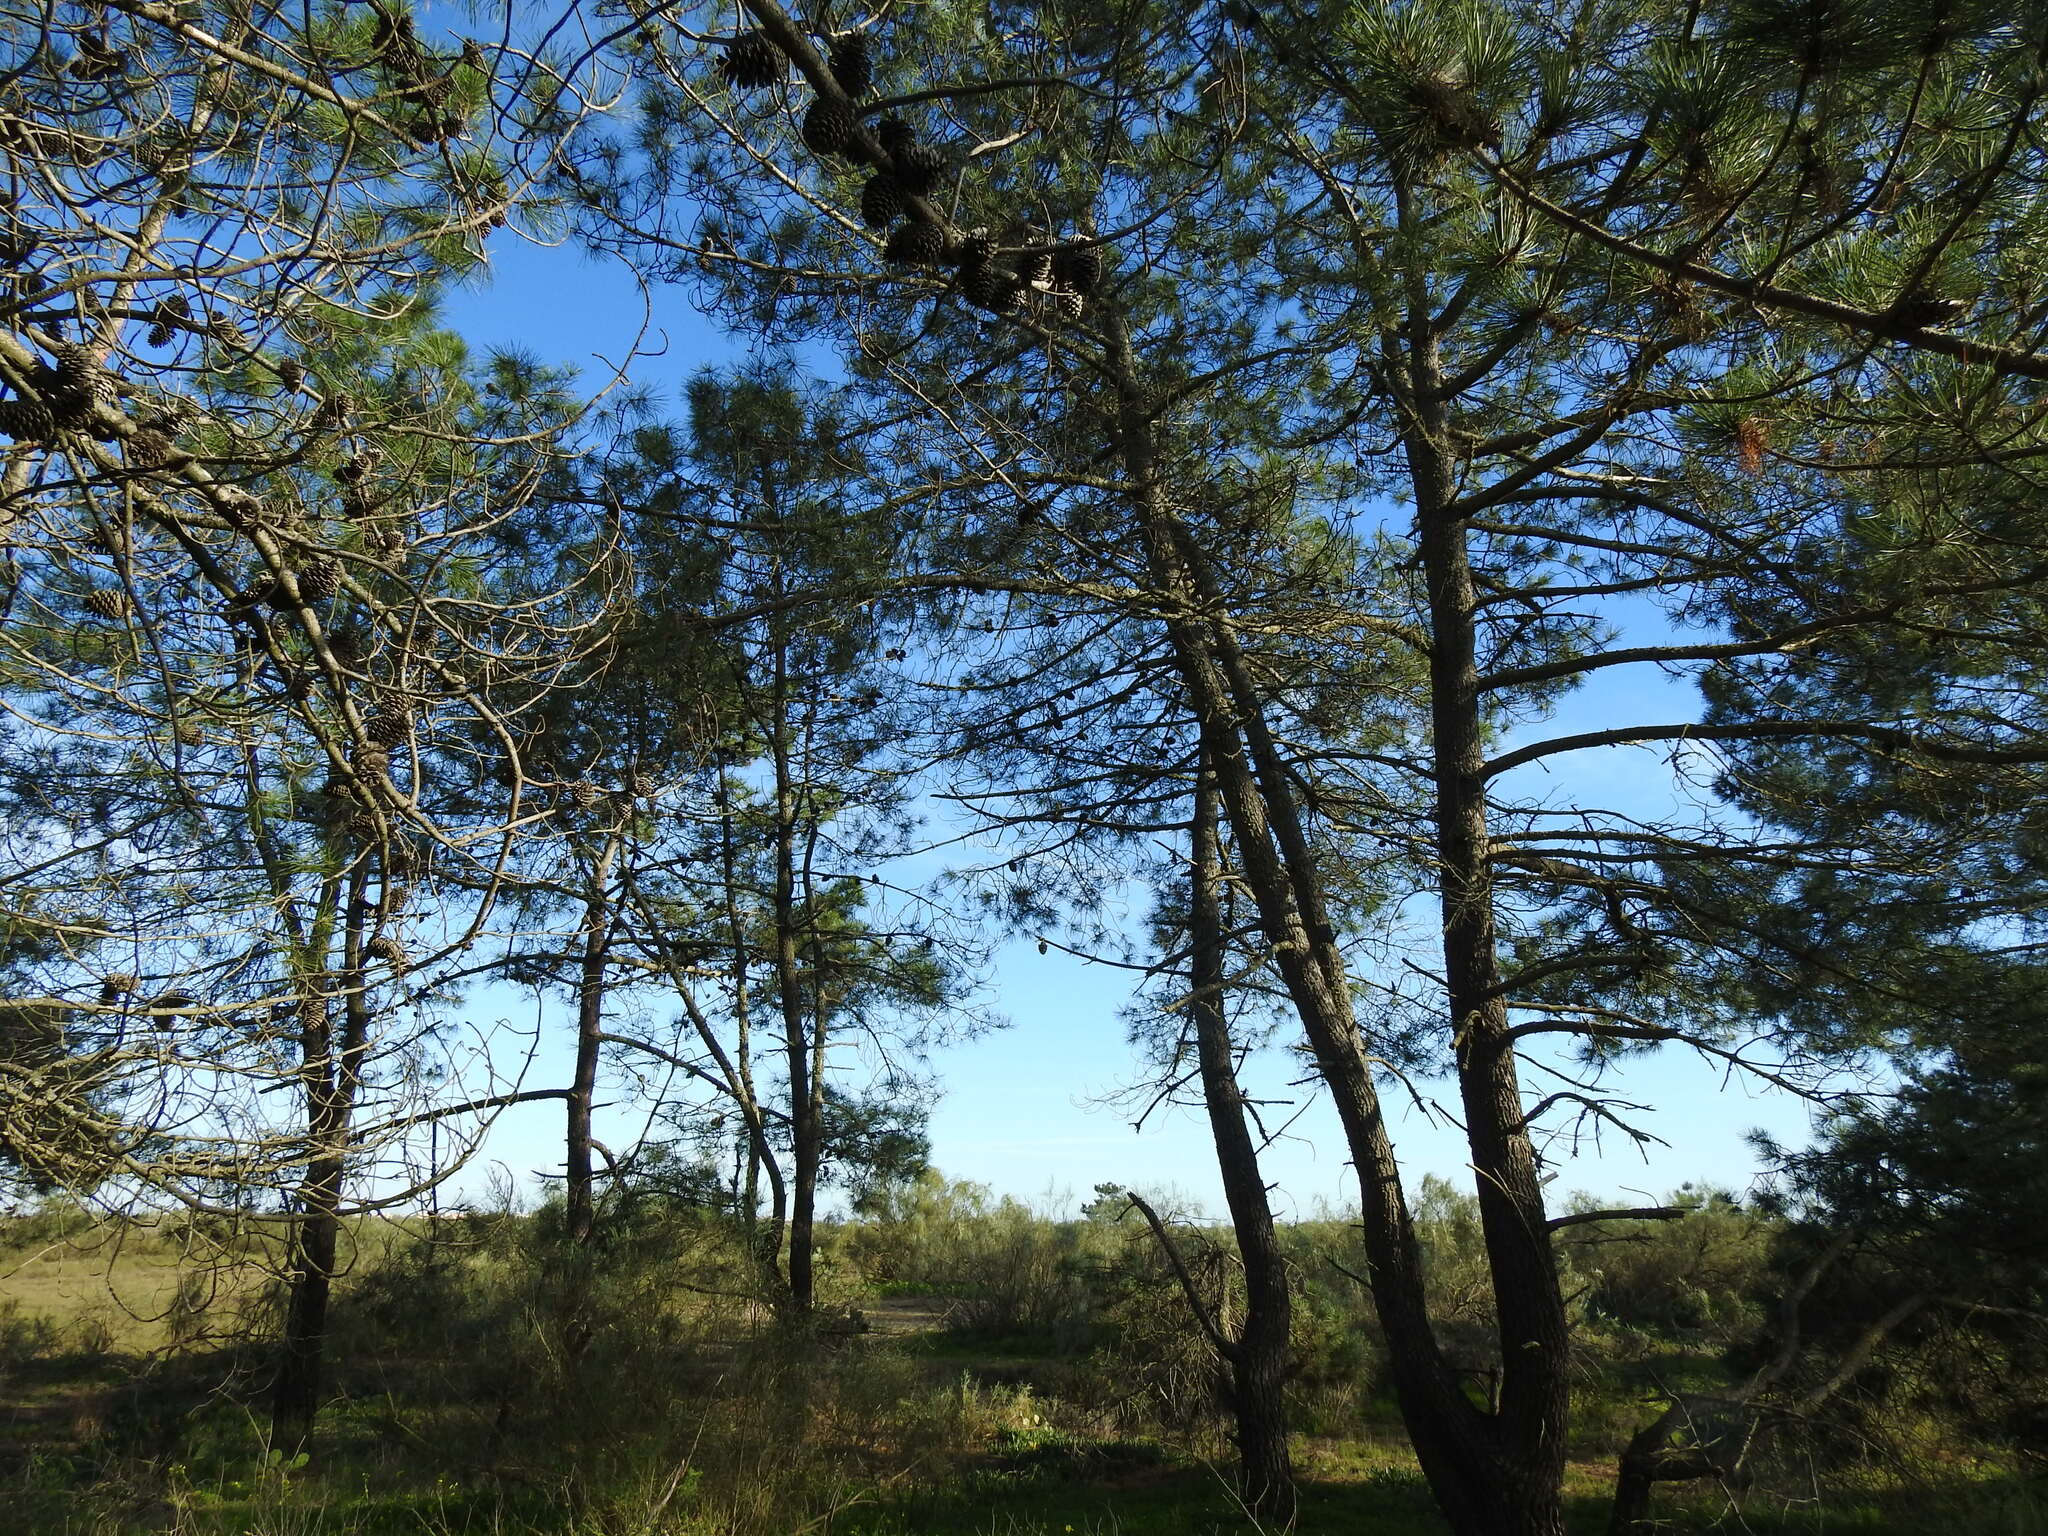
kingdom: Plantae
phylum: Tracheophyta
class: Pinopsida
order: Pinales
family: Pinaceae
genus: Pinus
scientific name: Pinus pinaster
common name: Maritime pine
